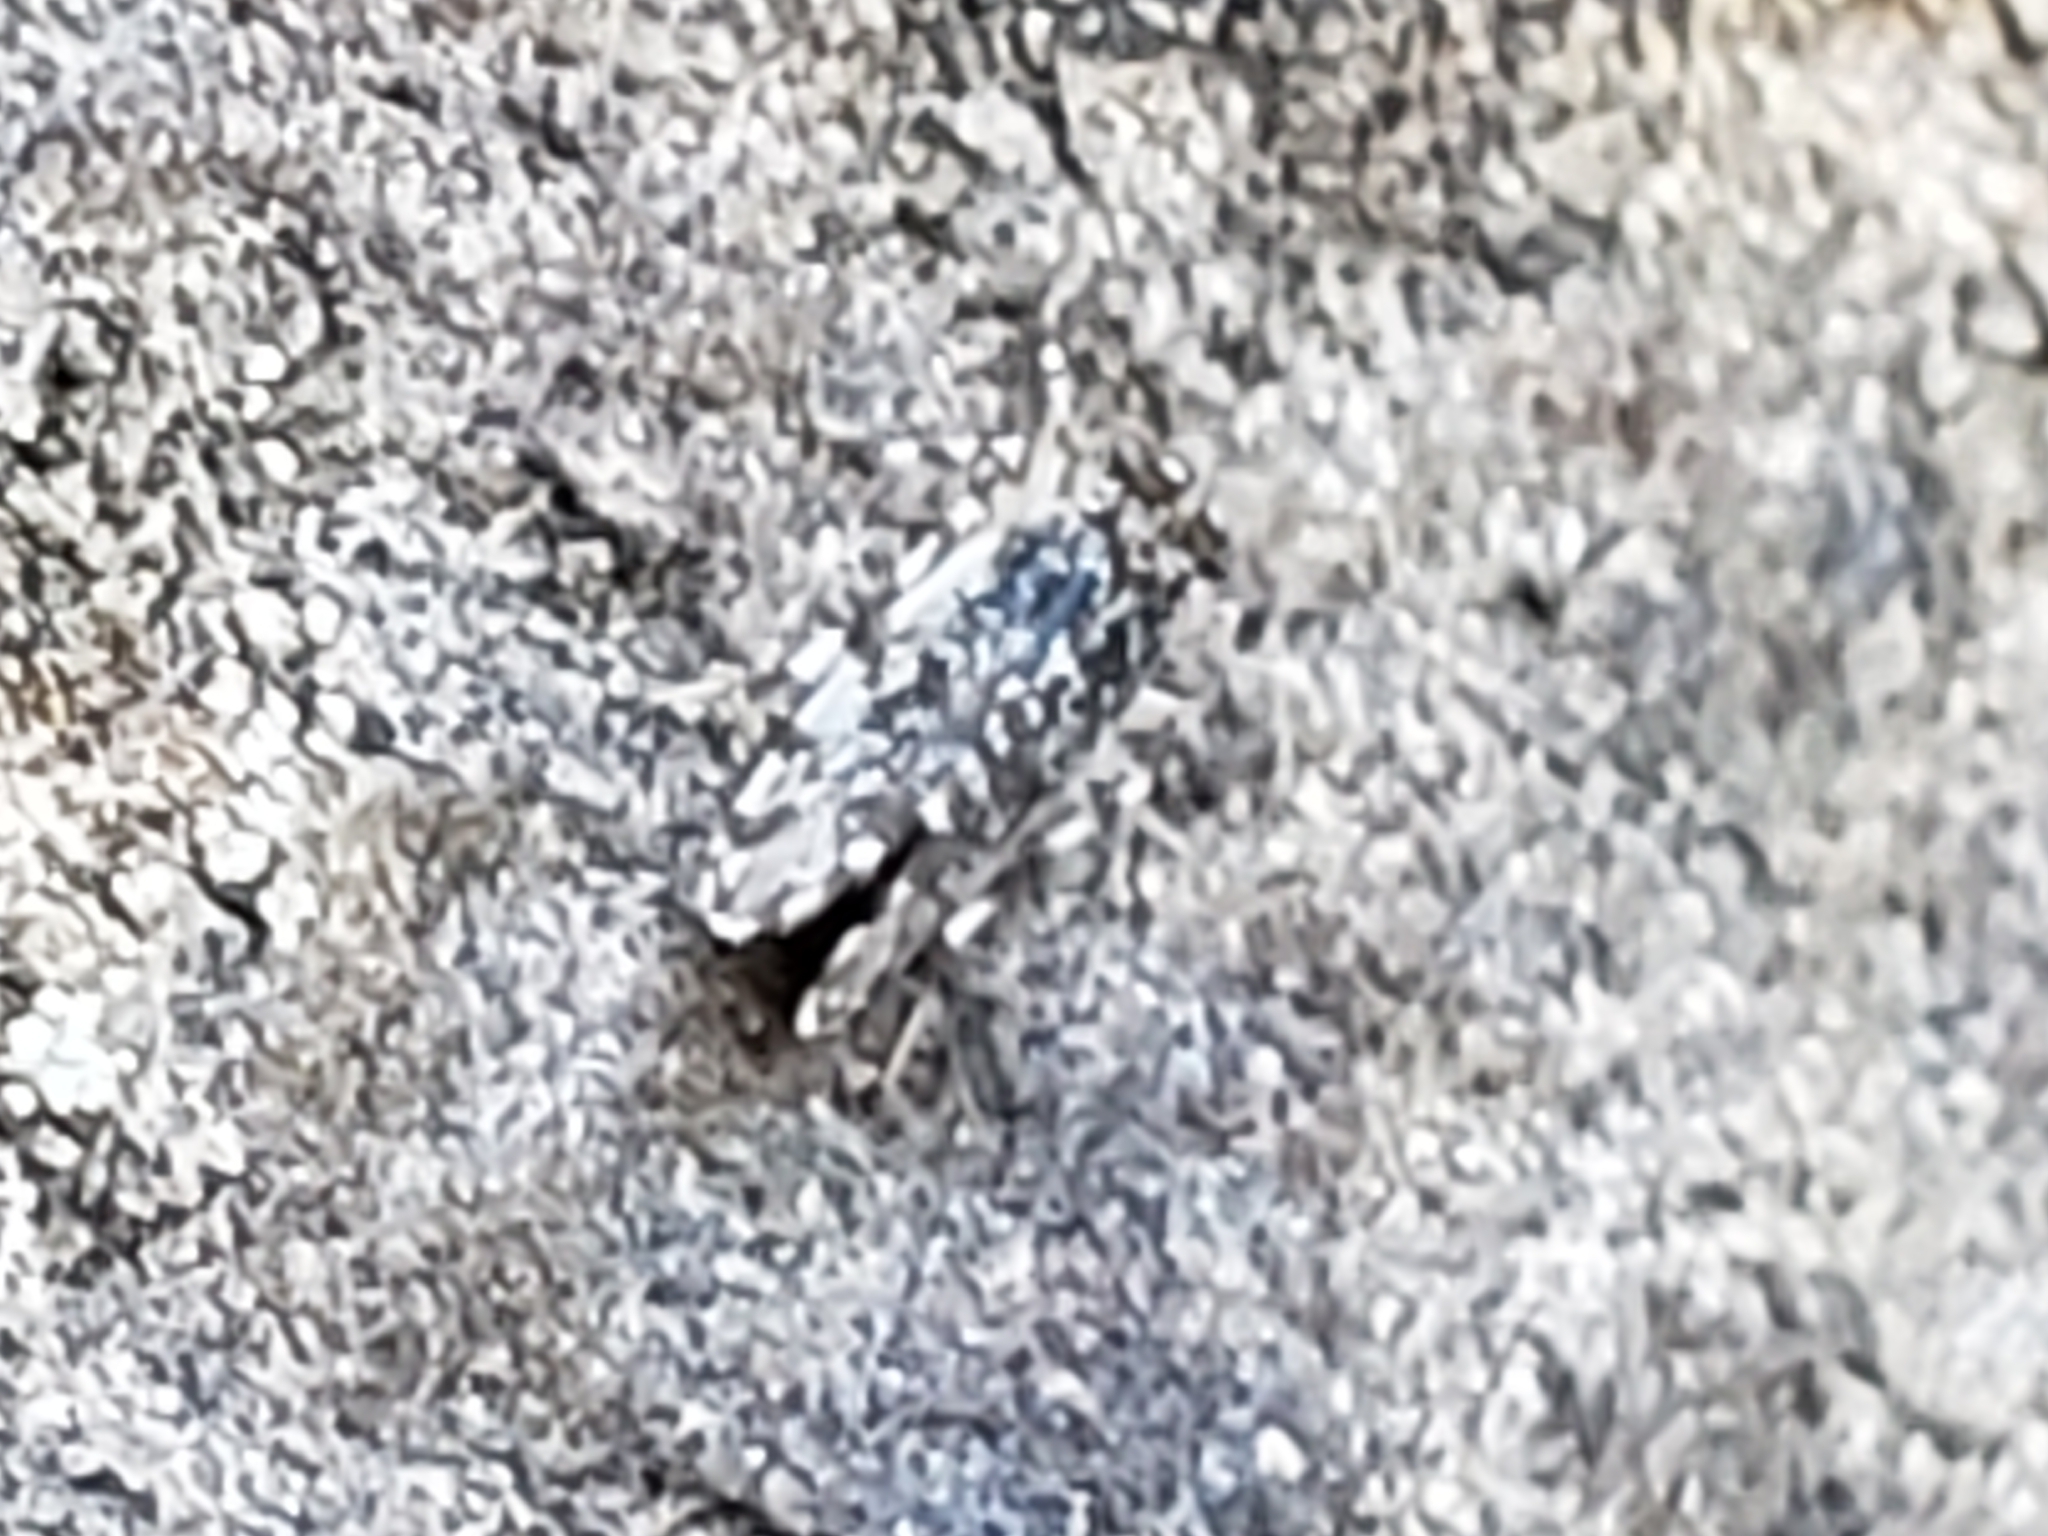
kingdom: Animalia
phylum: Arthropoda
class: Insecta
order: Psocodea
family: Amphientomidae
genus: Stimulopalpus
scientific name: Stimulopalpus japonicus
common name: Tropical bark louse
